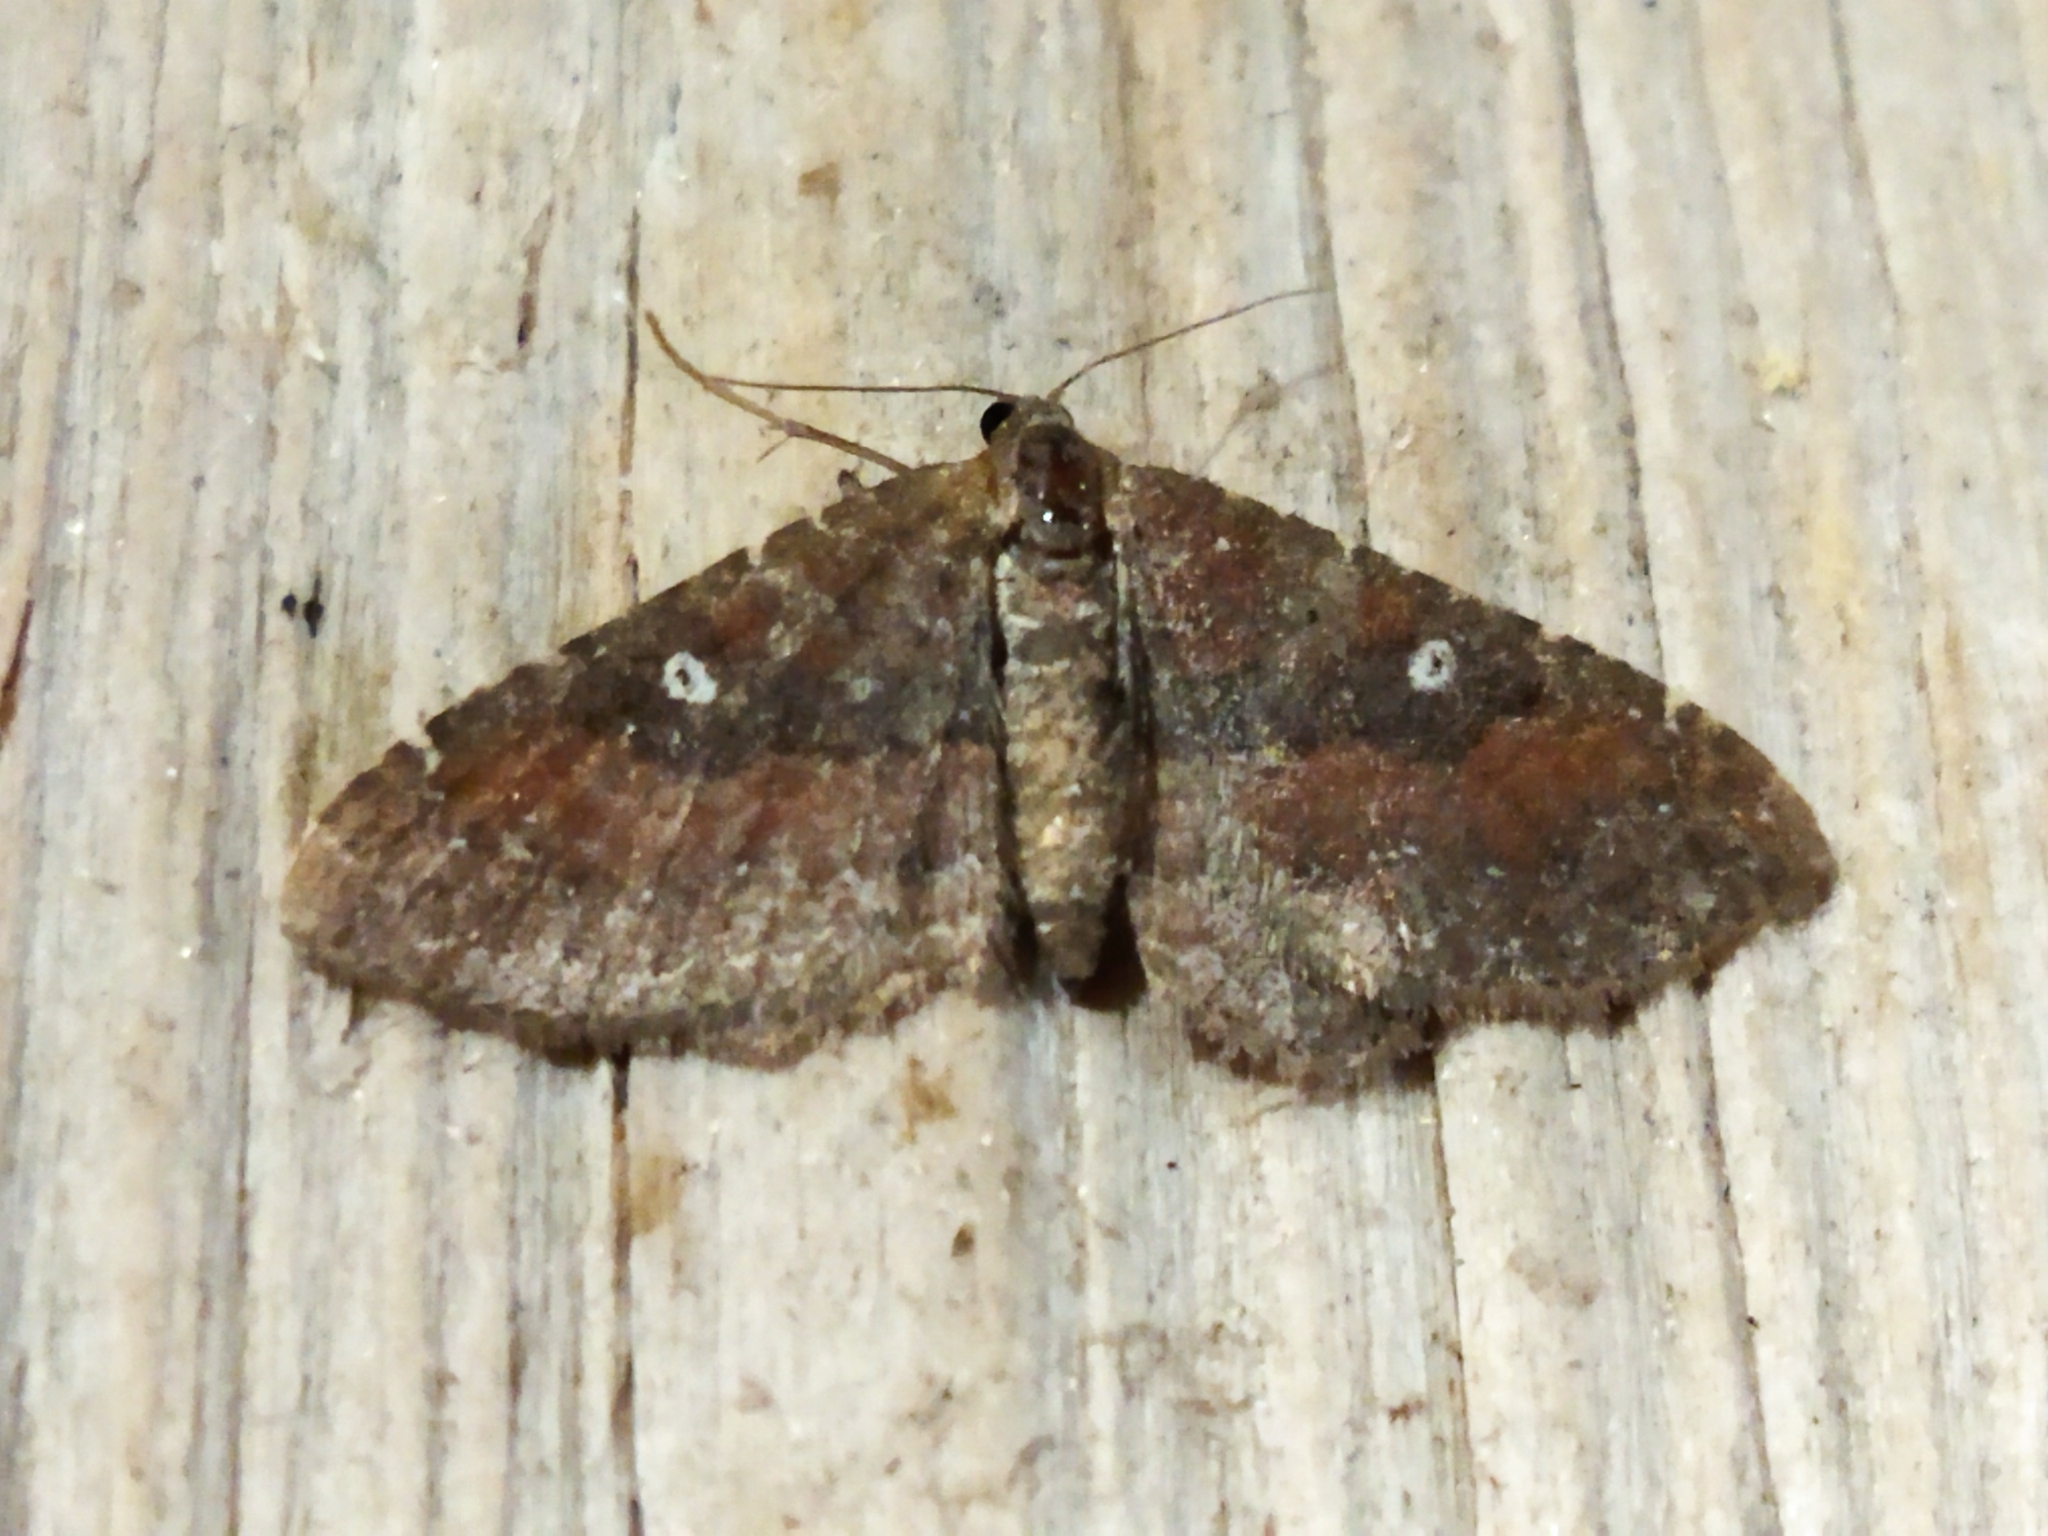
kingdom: Animalia
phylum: Arthropoda
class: Insecta
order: Lepidoptera
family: Geometridae
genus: Orthonama
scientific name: Orthonama obstipata
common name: The gem
